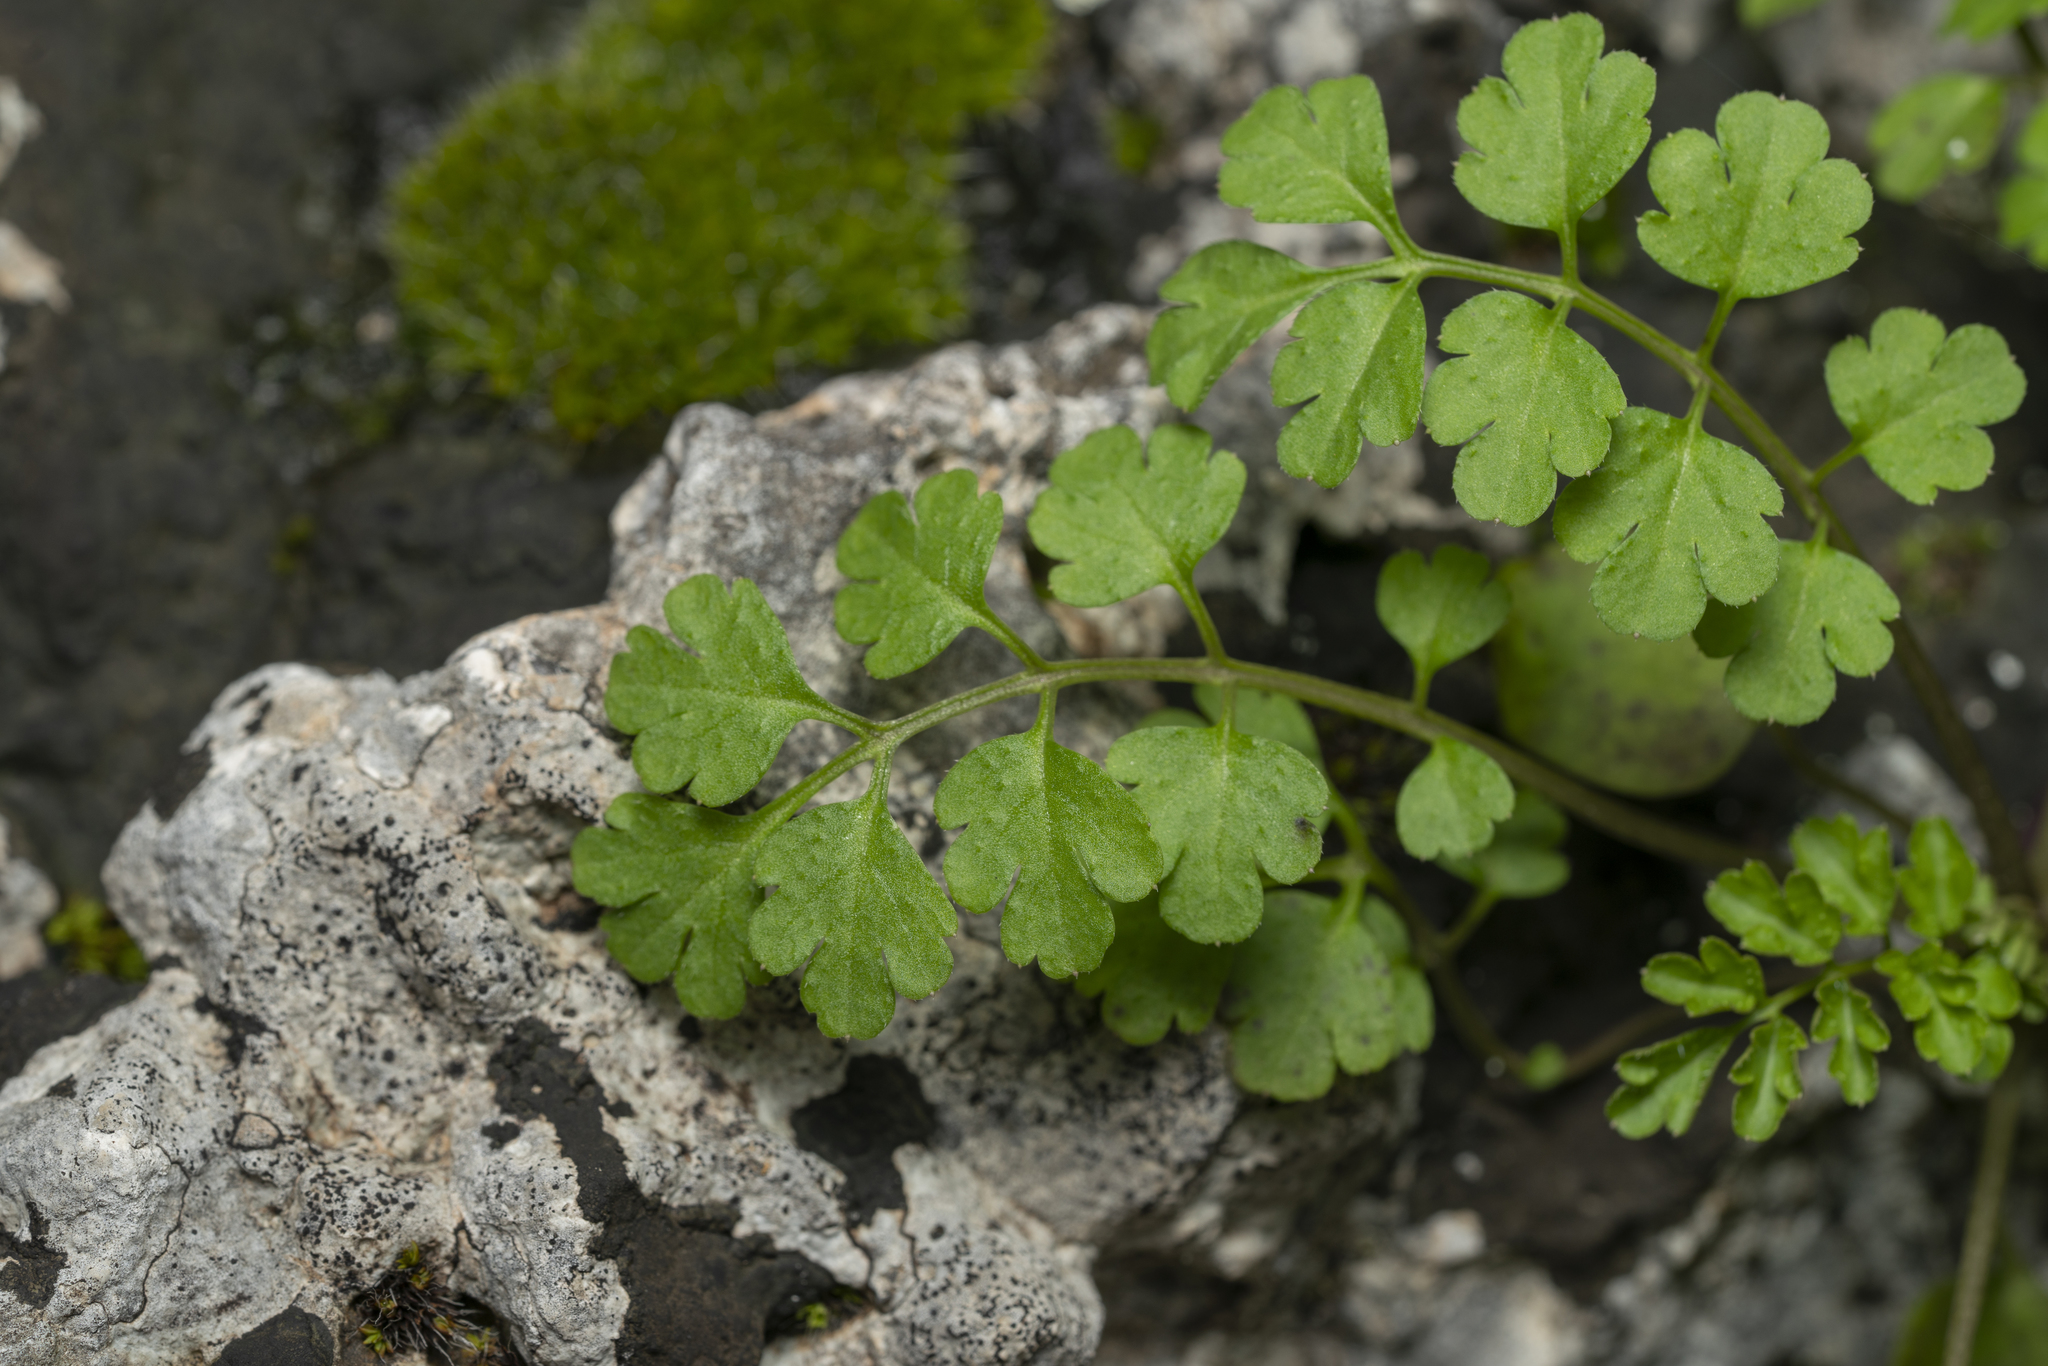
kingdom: Plantae
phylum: Tracheophyta
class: Magnoliopsida
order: Brassicales
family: Brassicaceae
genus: Cardamine
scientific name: Cardamine graeca
